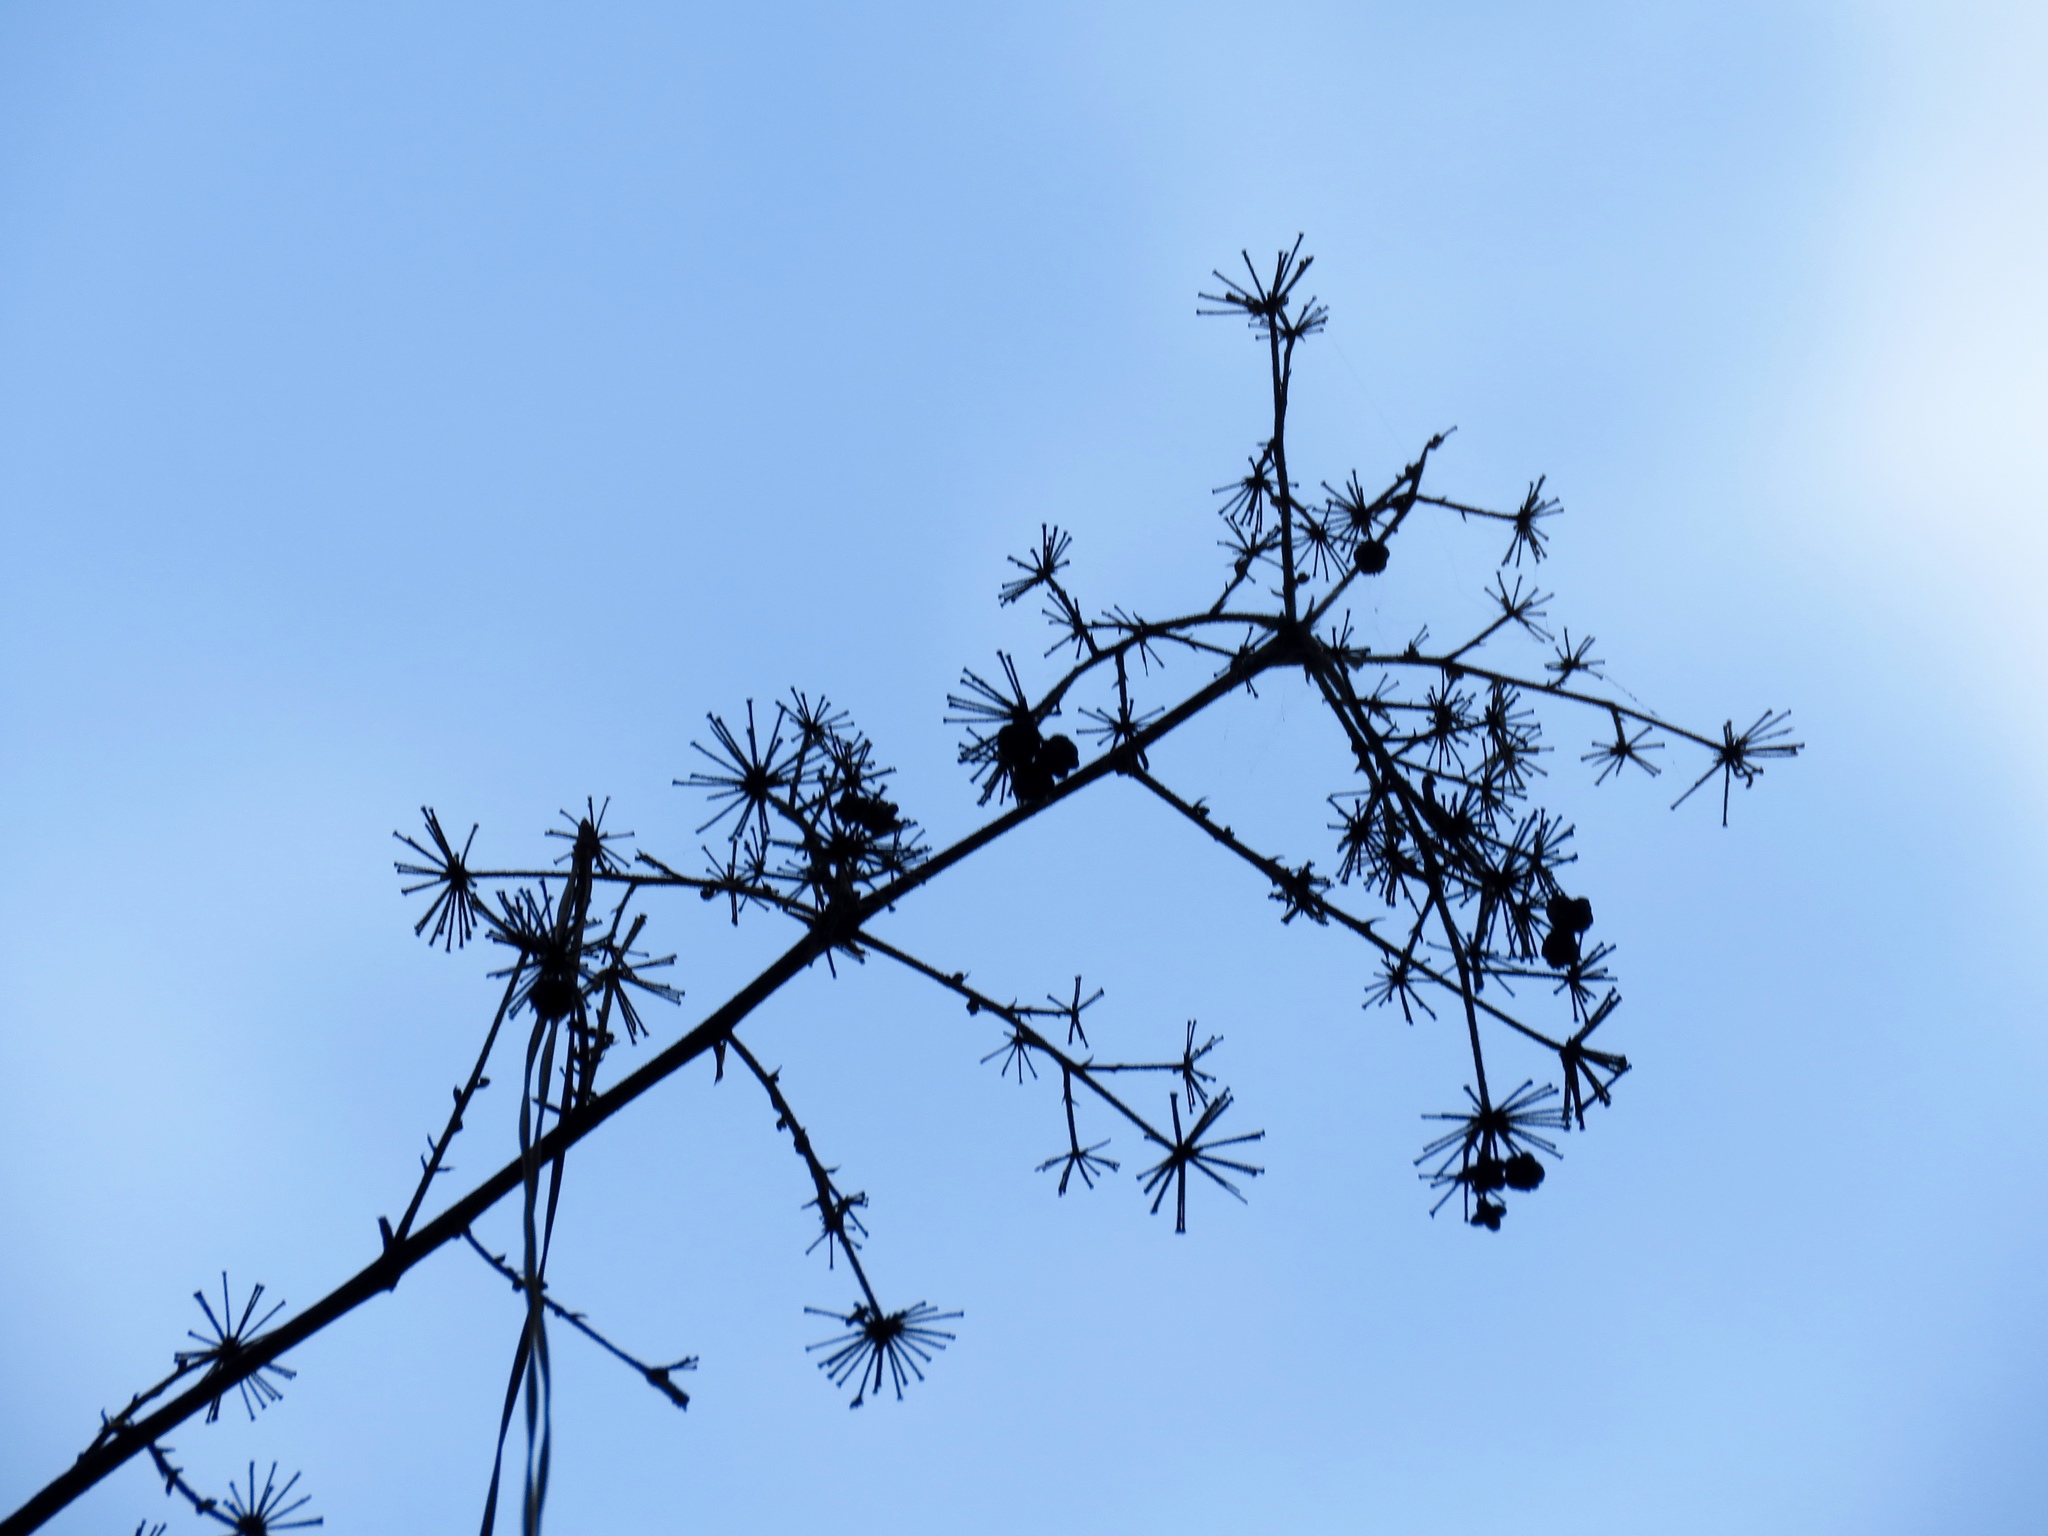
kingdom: Plantae
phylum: Tracheophyta
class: Magnoliopsida
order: Apiales
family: Araliaceae
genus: Aralia
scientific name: Aralia spinosa
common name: Hercules'-club
